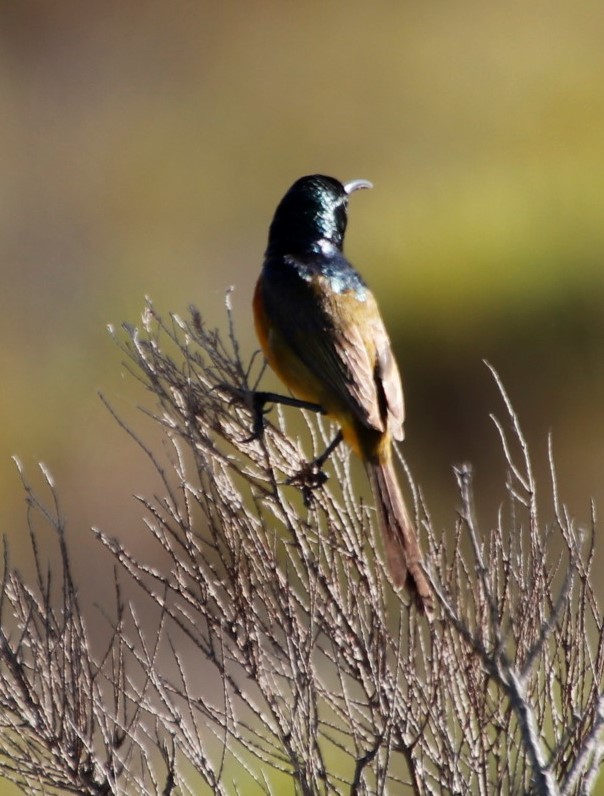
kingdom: Animalia
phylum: Chordata
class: Aves
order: Passeriformes
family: Nectariniidae
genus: Anthobaphes
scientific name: Anthobaphes violacea
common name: Orange-breasted sunbird
